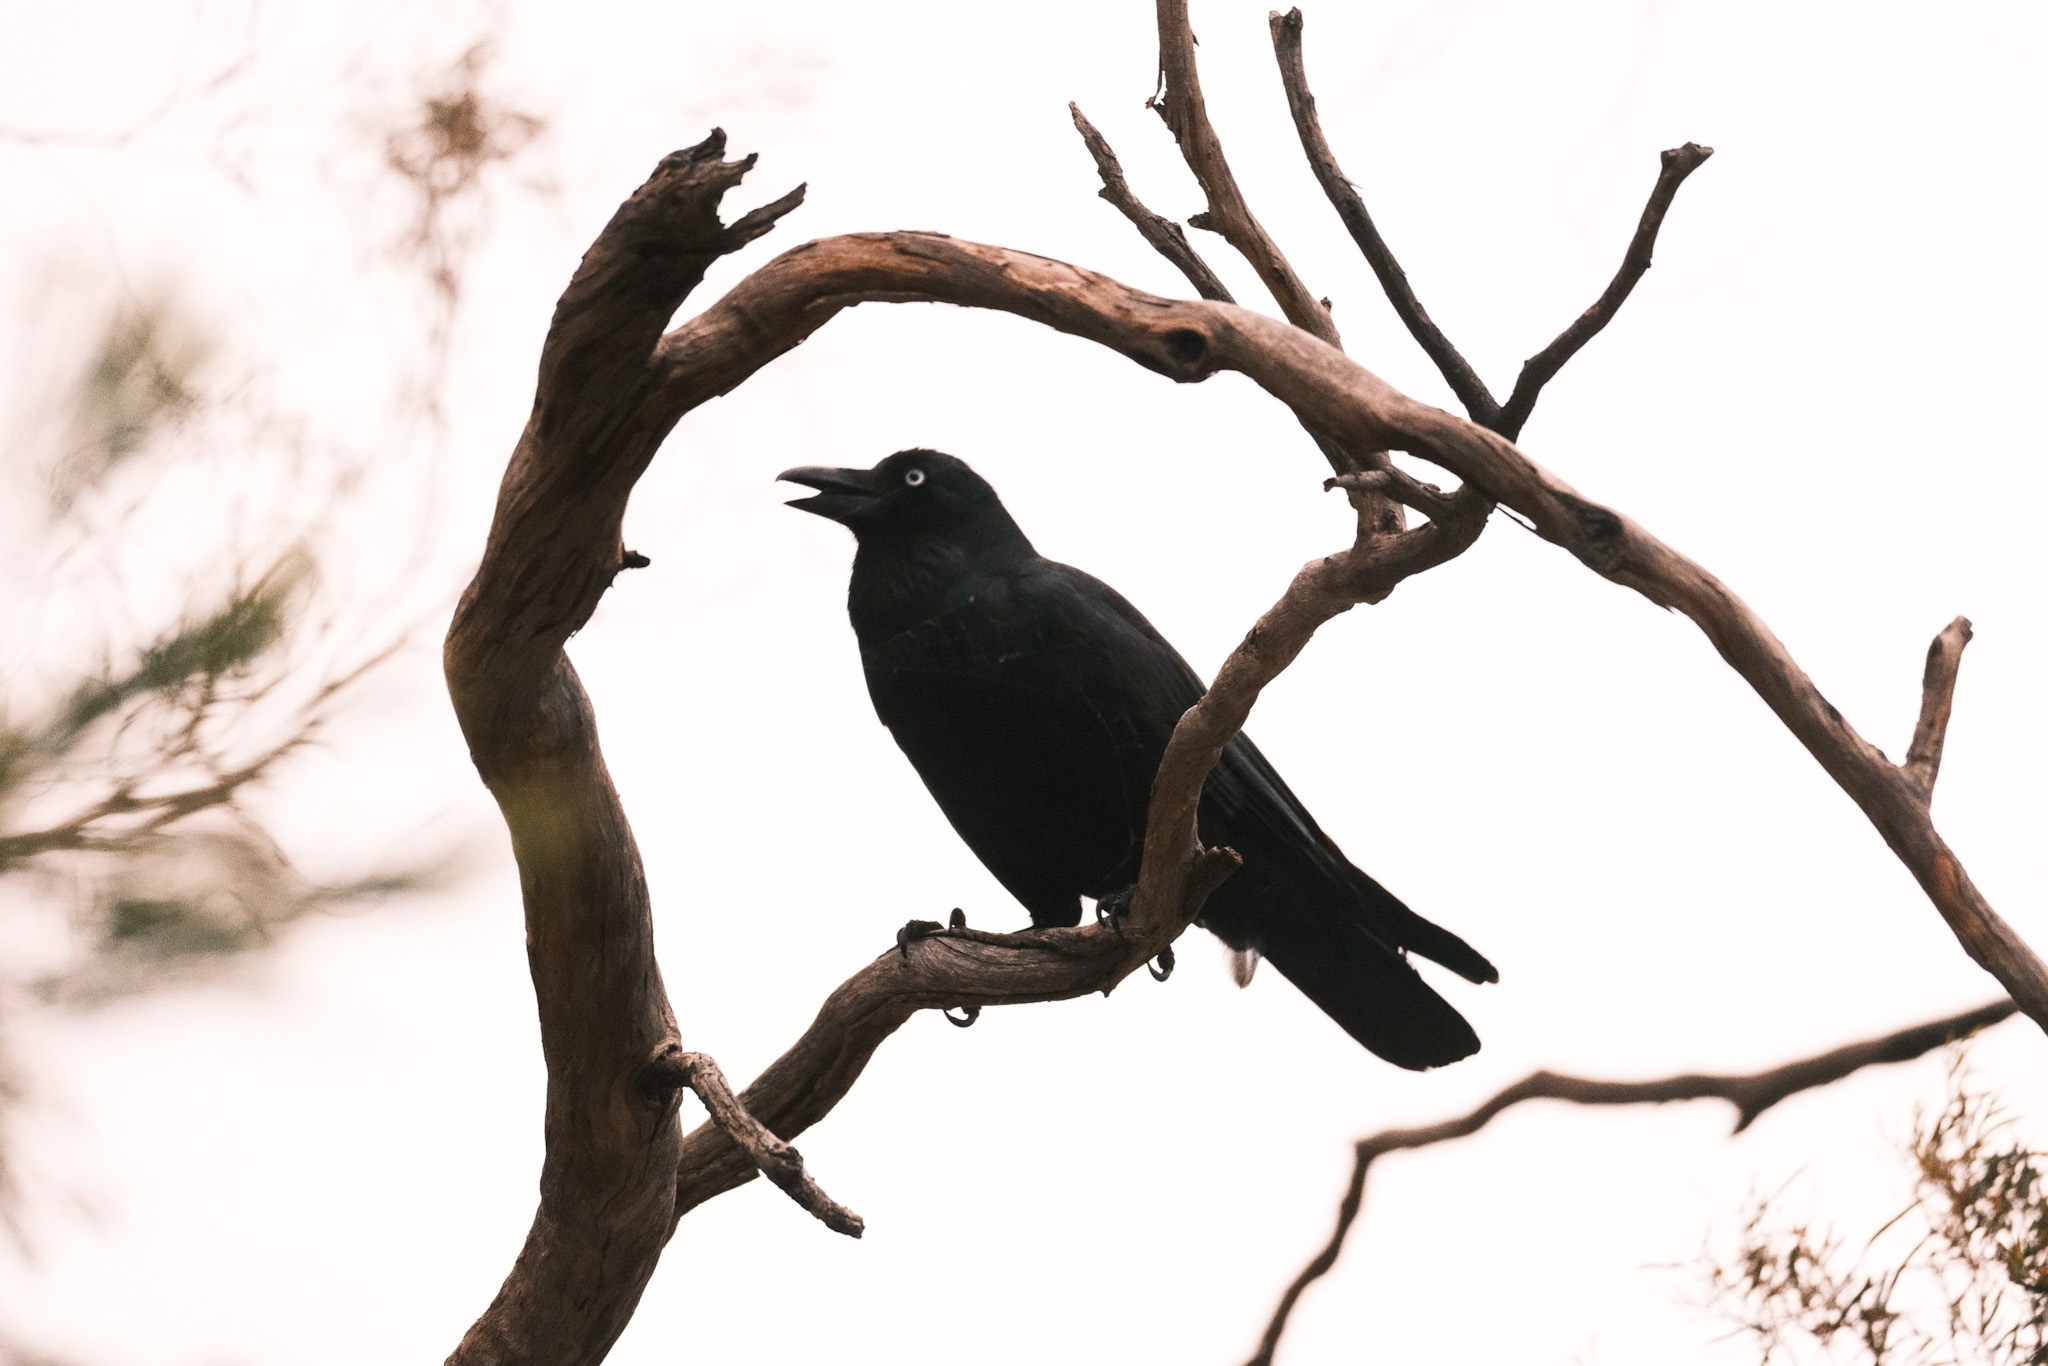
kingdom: Animalia
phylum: Chordata
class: Aves
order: Passeriformes
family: Corvidae
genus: Corvus
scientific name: Corvus tasmanicus
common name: Forest raven
